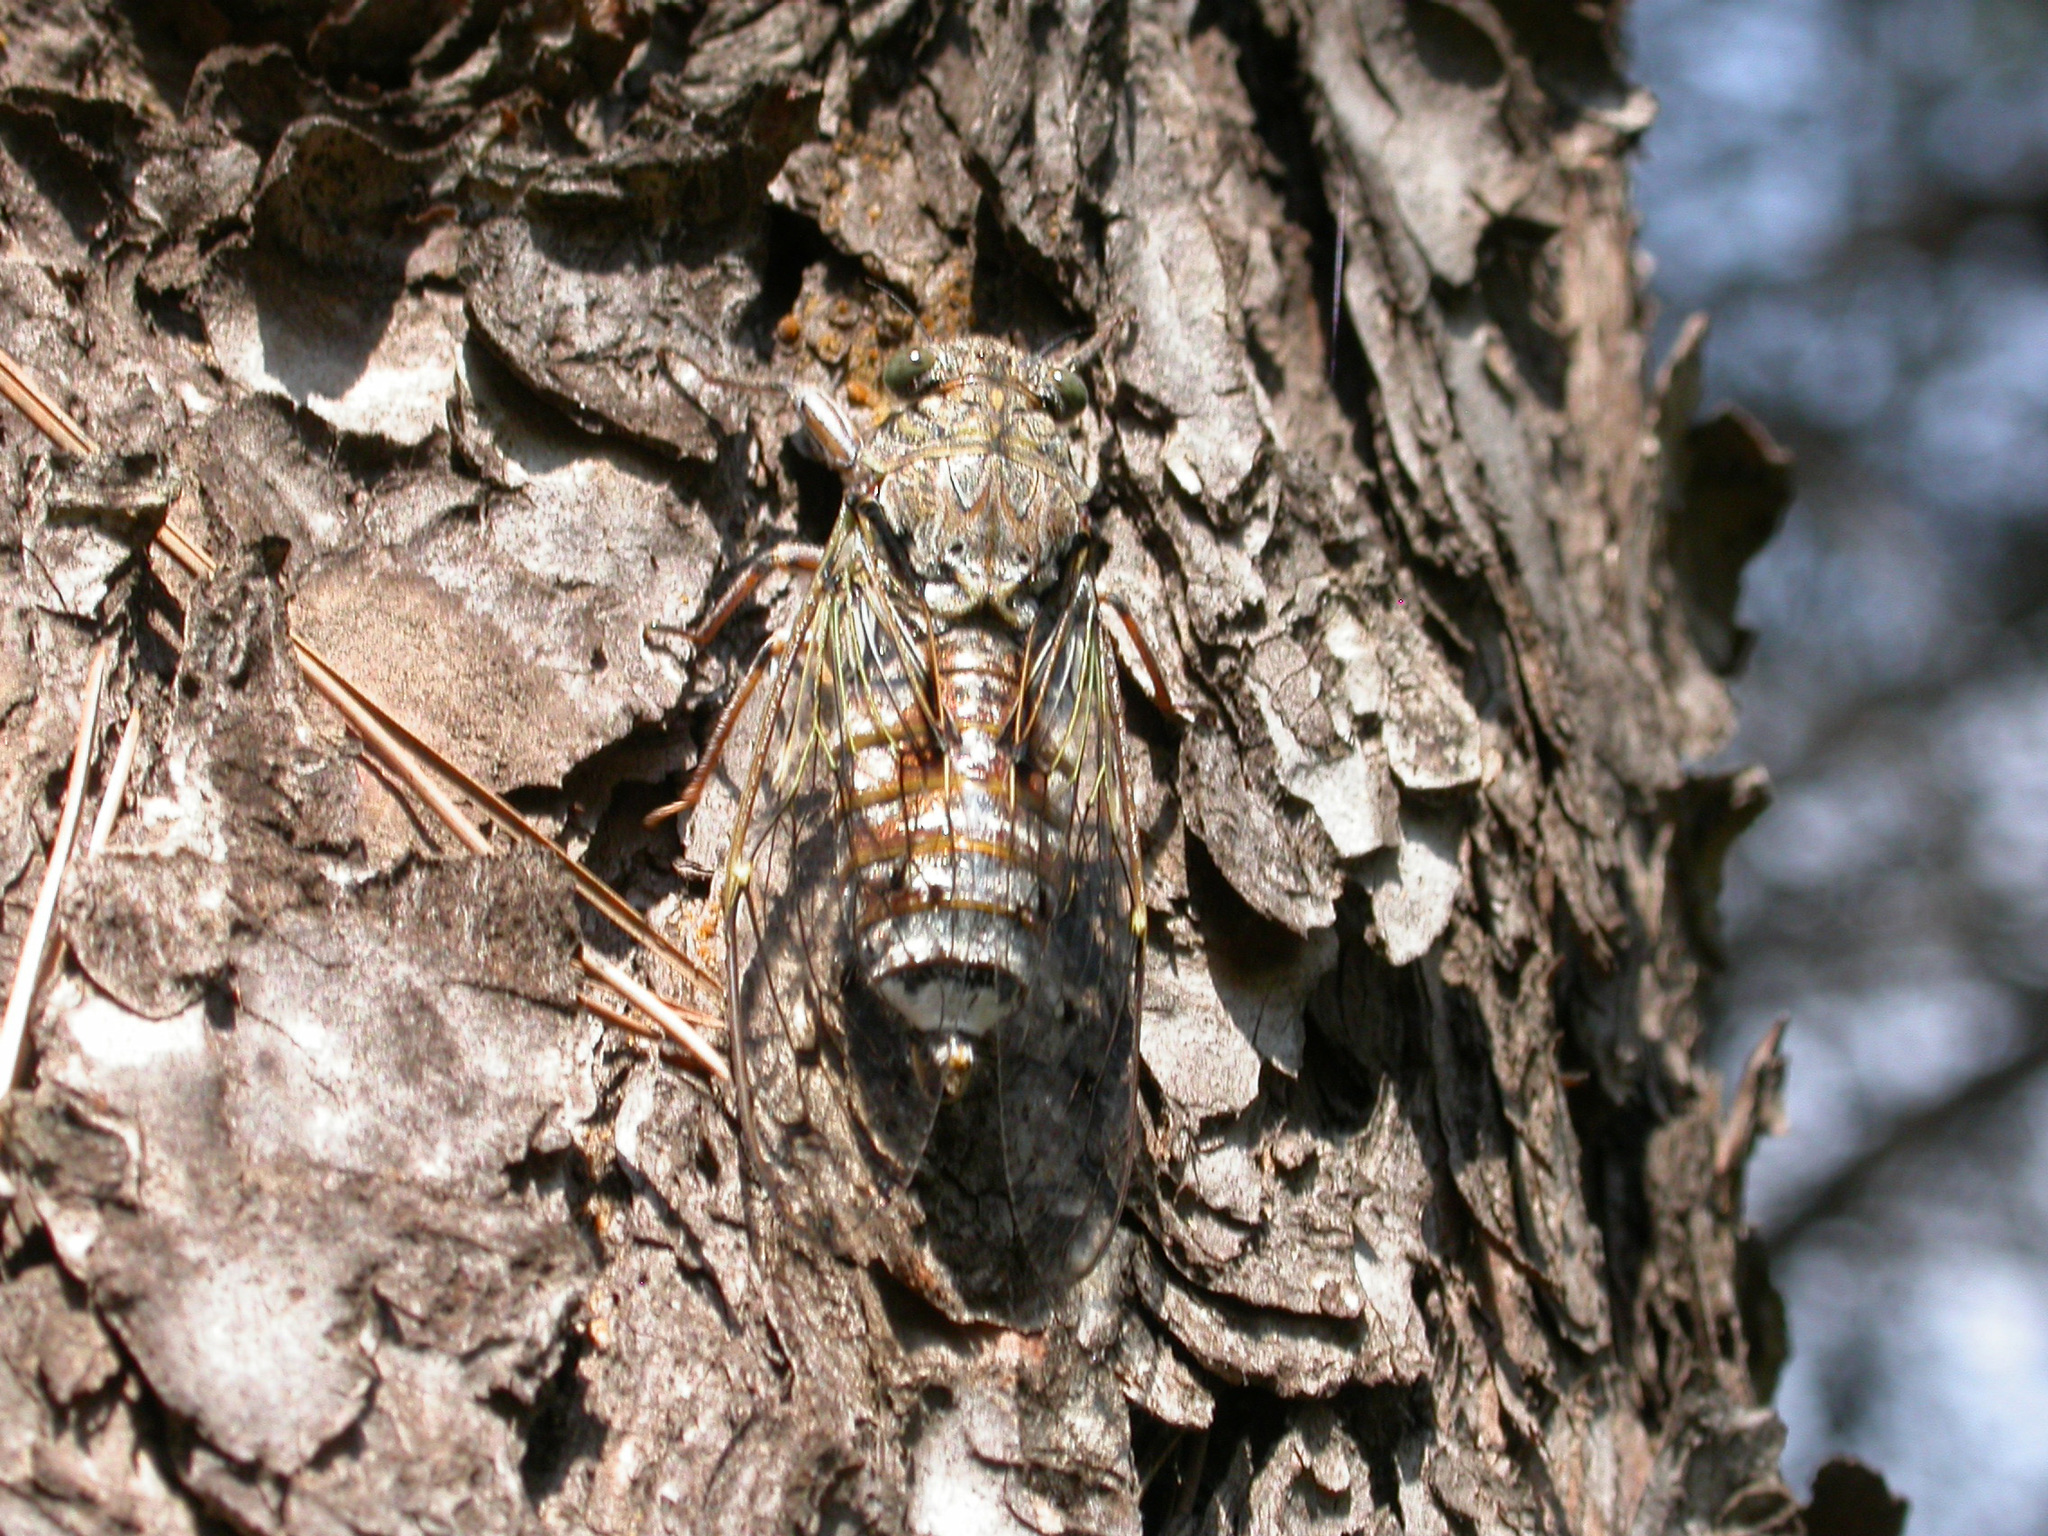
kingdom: Animalia
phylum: Arthropoda
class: Insecta
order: Hemiptera
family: Cicadidae
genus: Cicada
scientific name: Cicada orni
